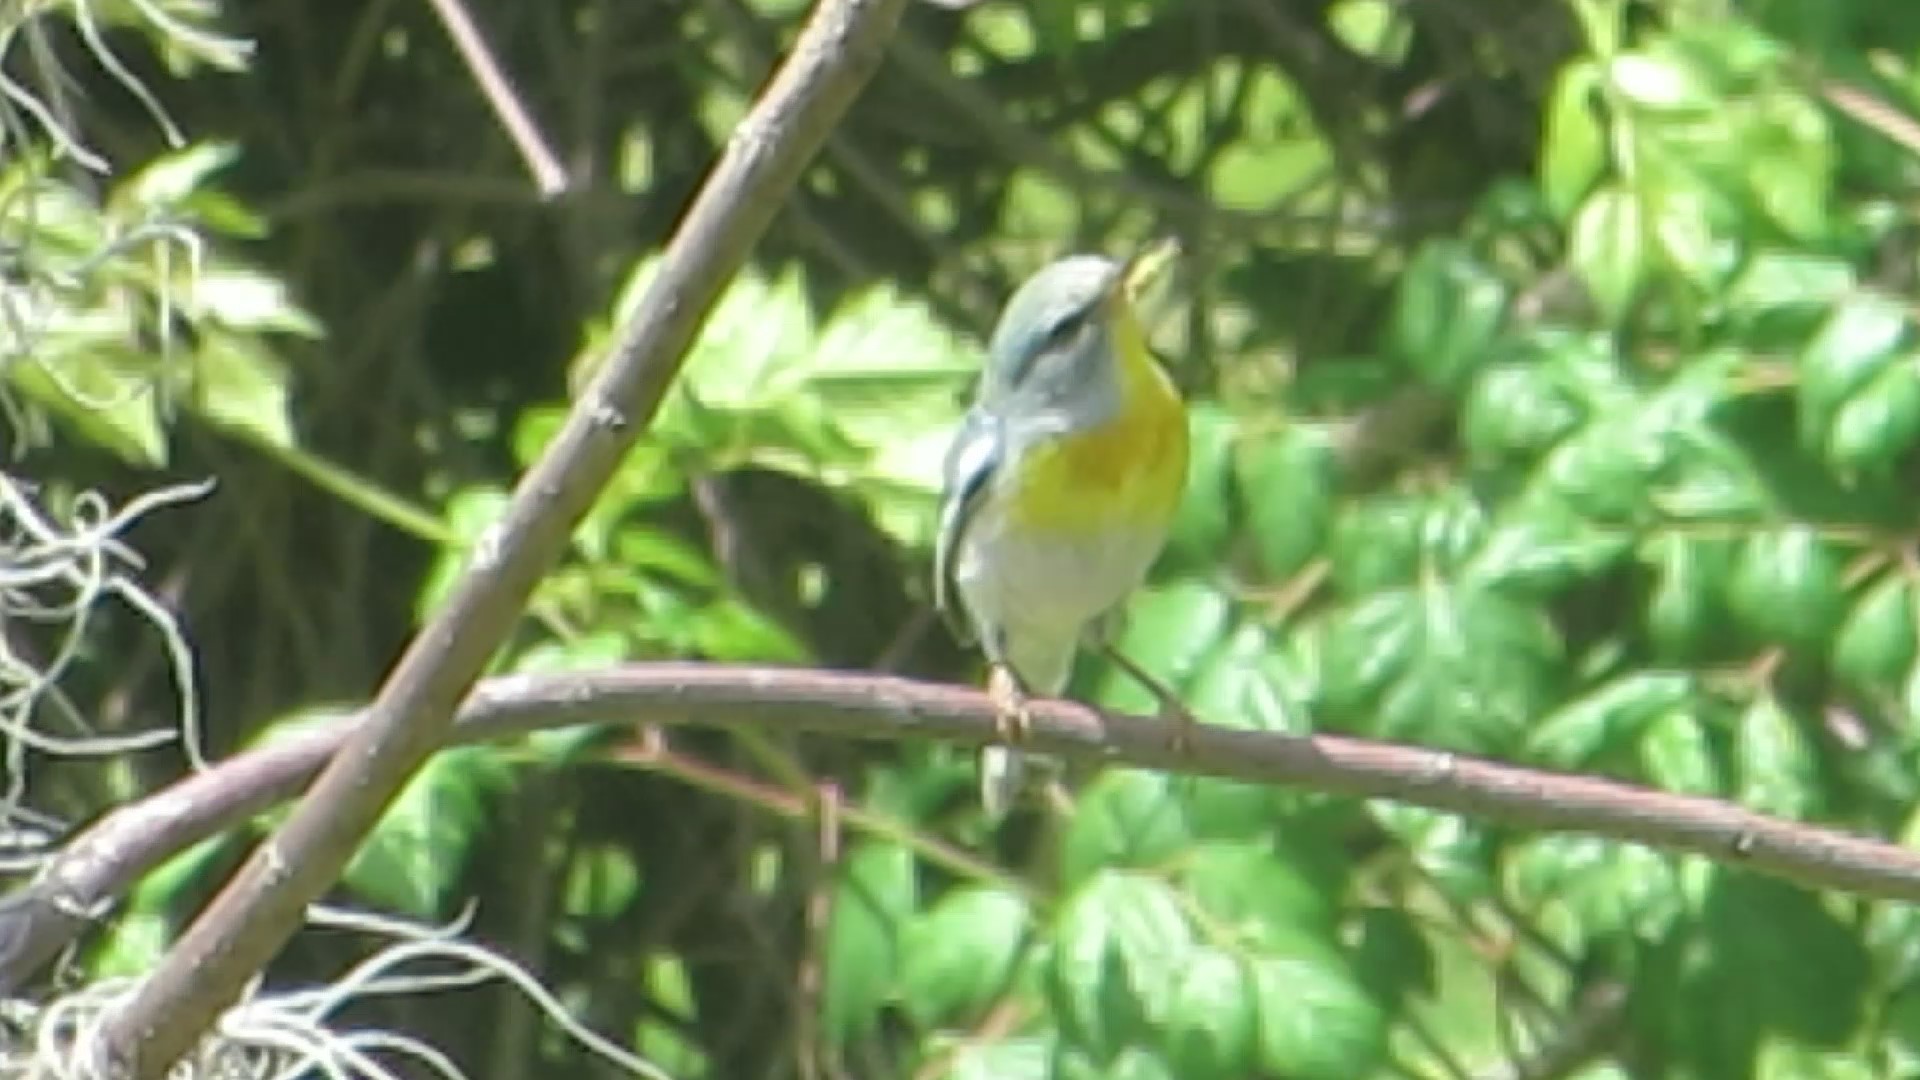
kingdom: Animalia
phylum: Chordata
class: Aves
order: Passeriformes
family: Parulidae
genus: Setophaga
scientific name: Setophaga americana
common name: Northern parula
